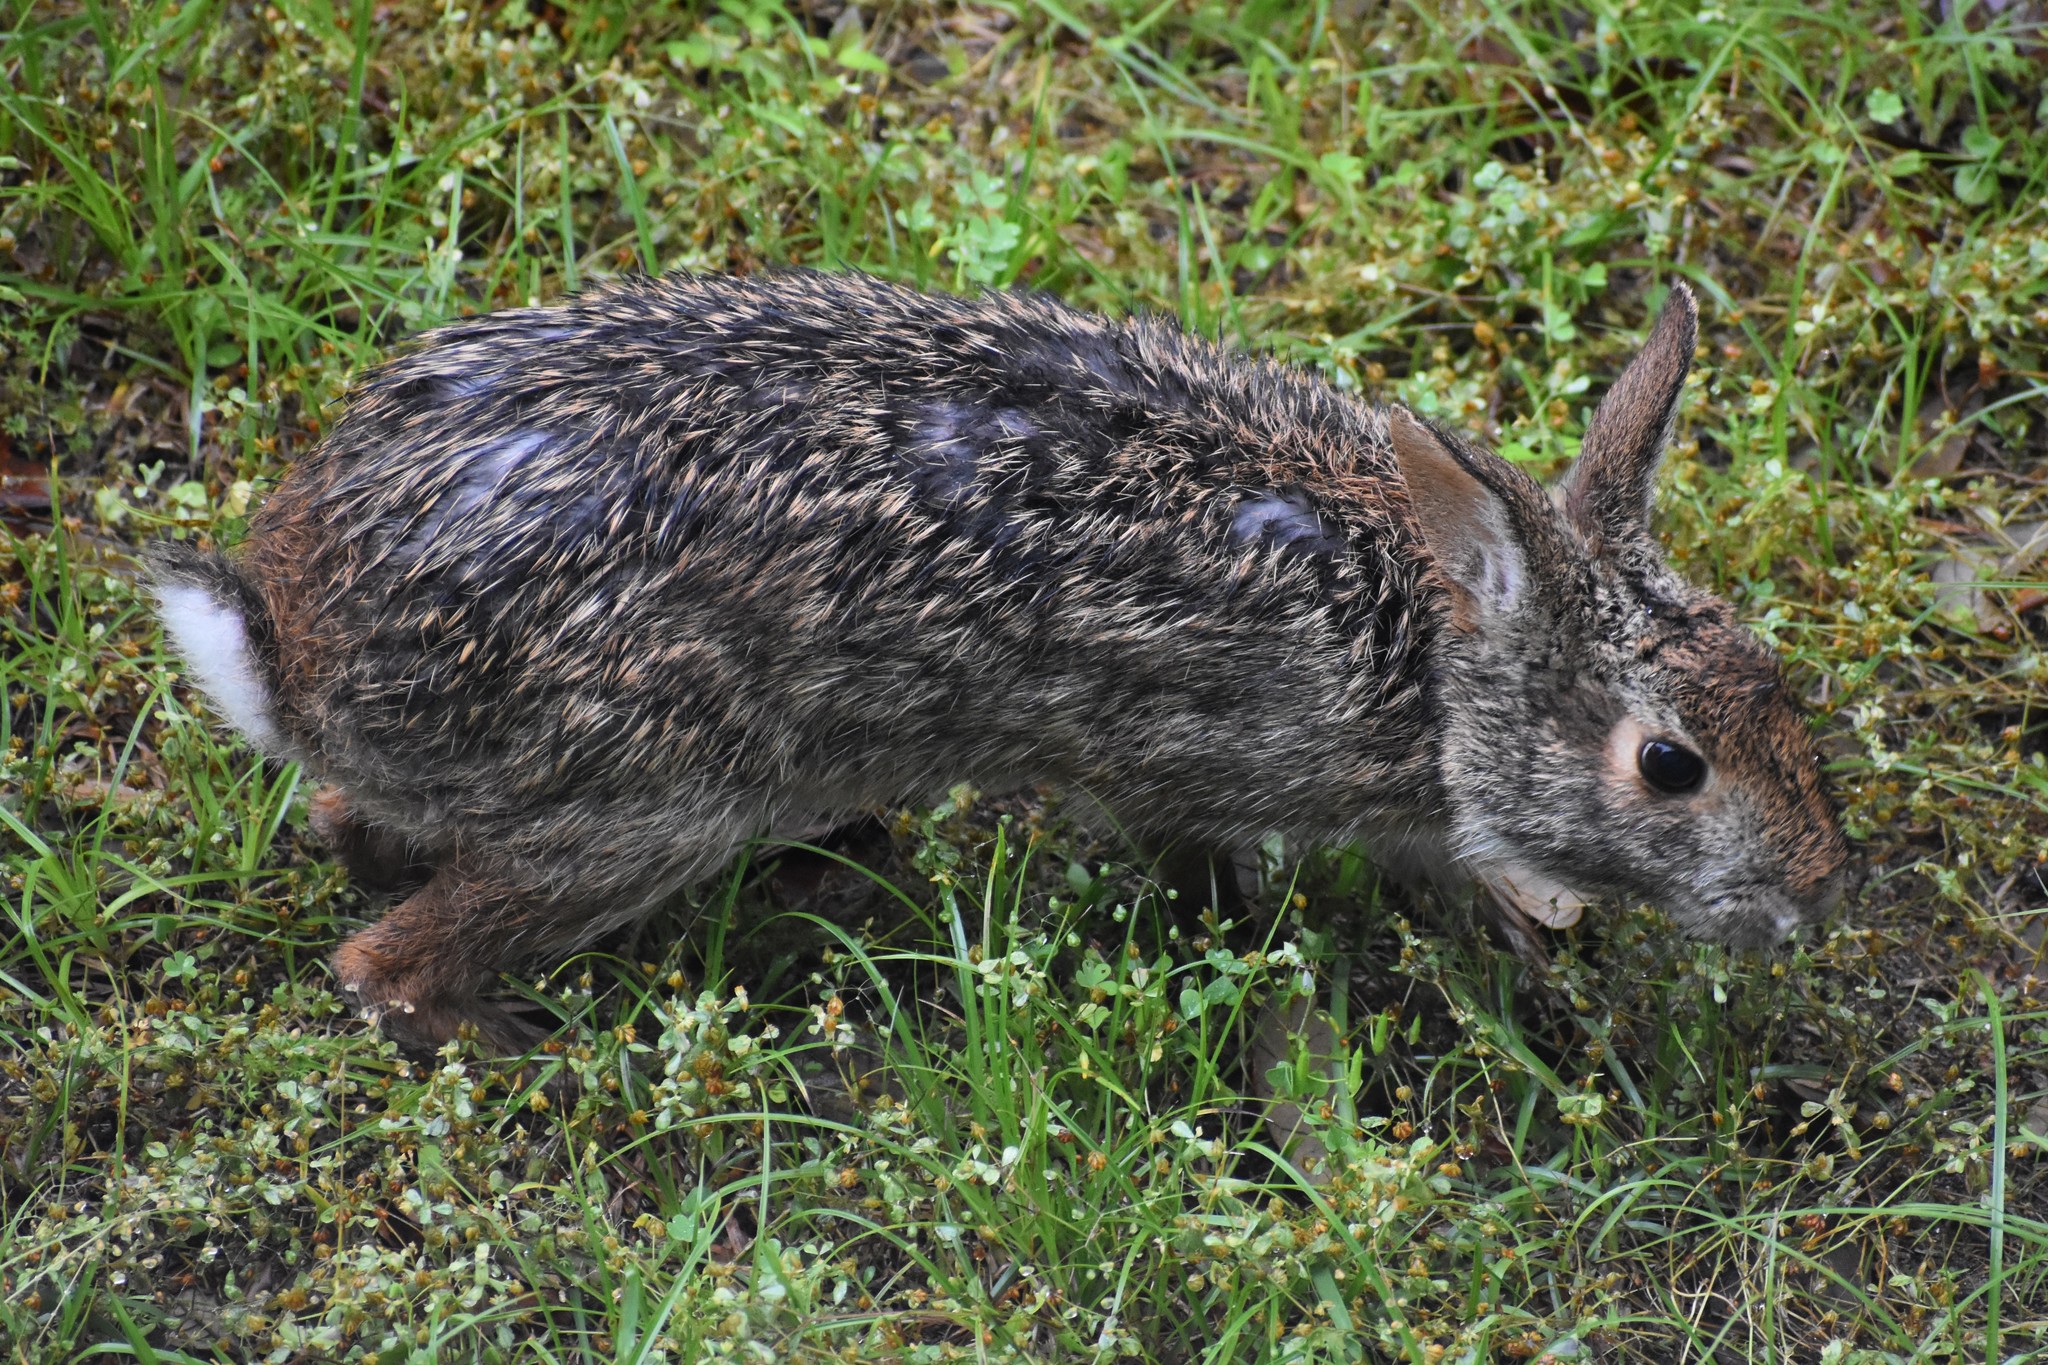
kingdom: Animalia
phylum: Chordata
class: Mammalia
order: Lagomorpha
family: Leporidae
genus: Sylvilagus
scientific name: Sylvilagus aquaticus
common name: Swamp rabbit
